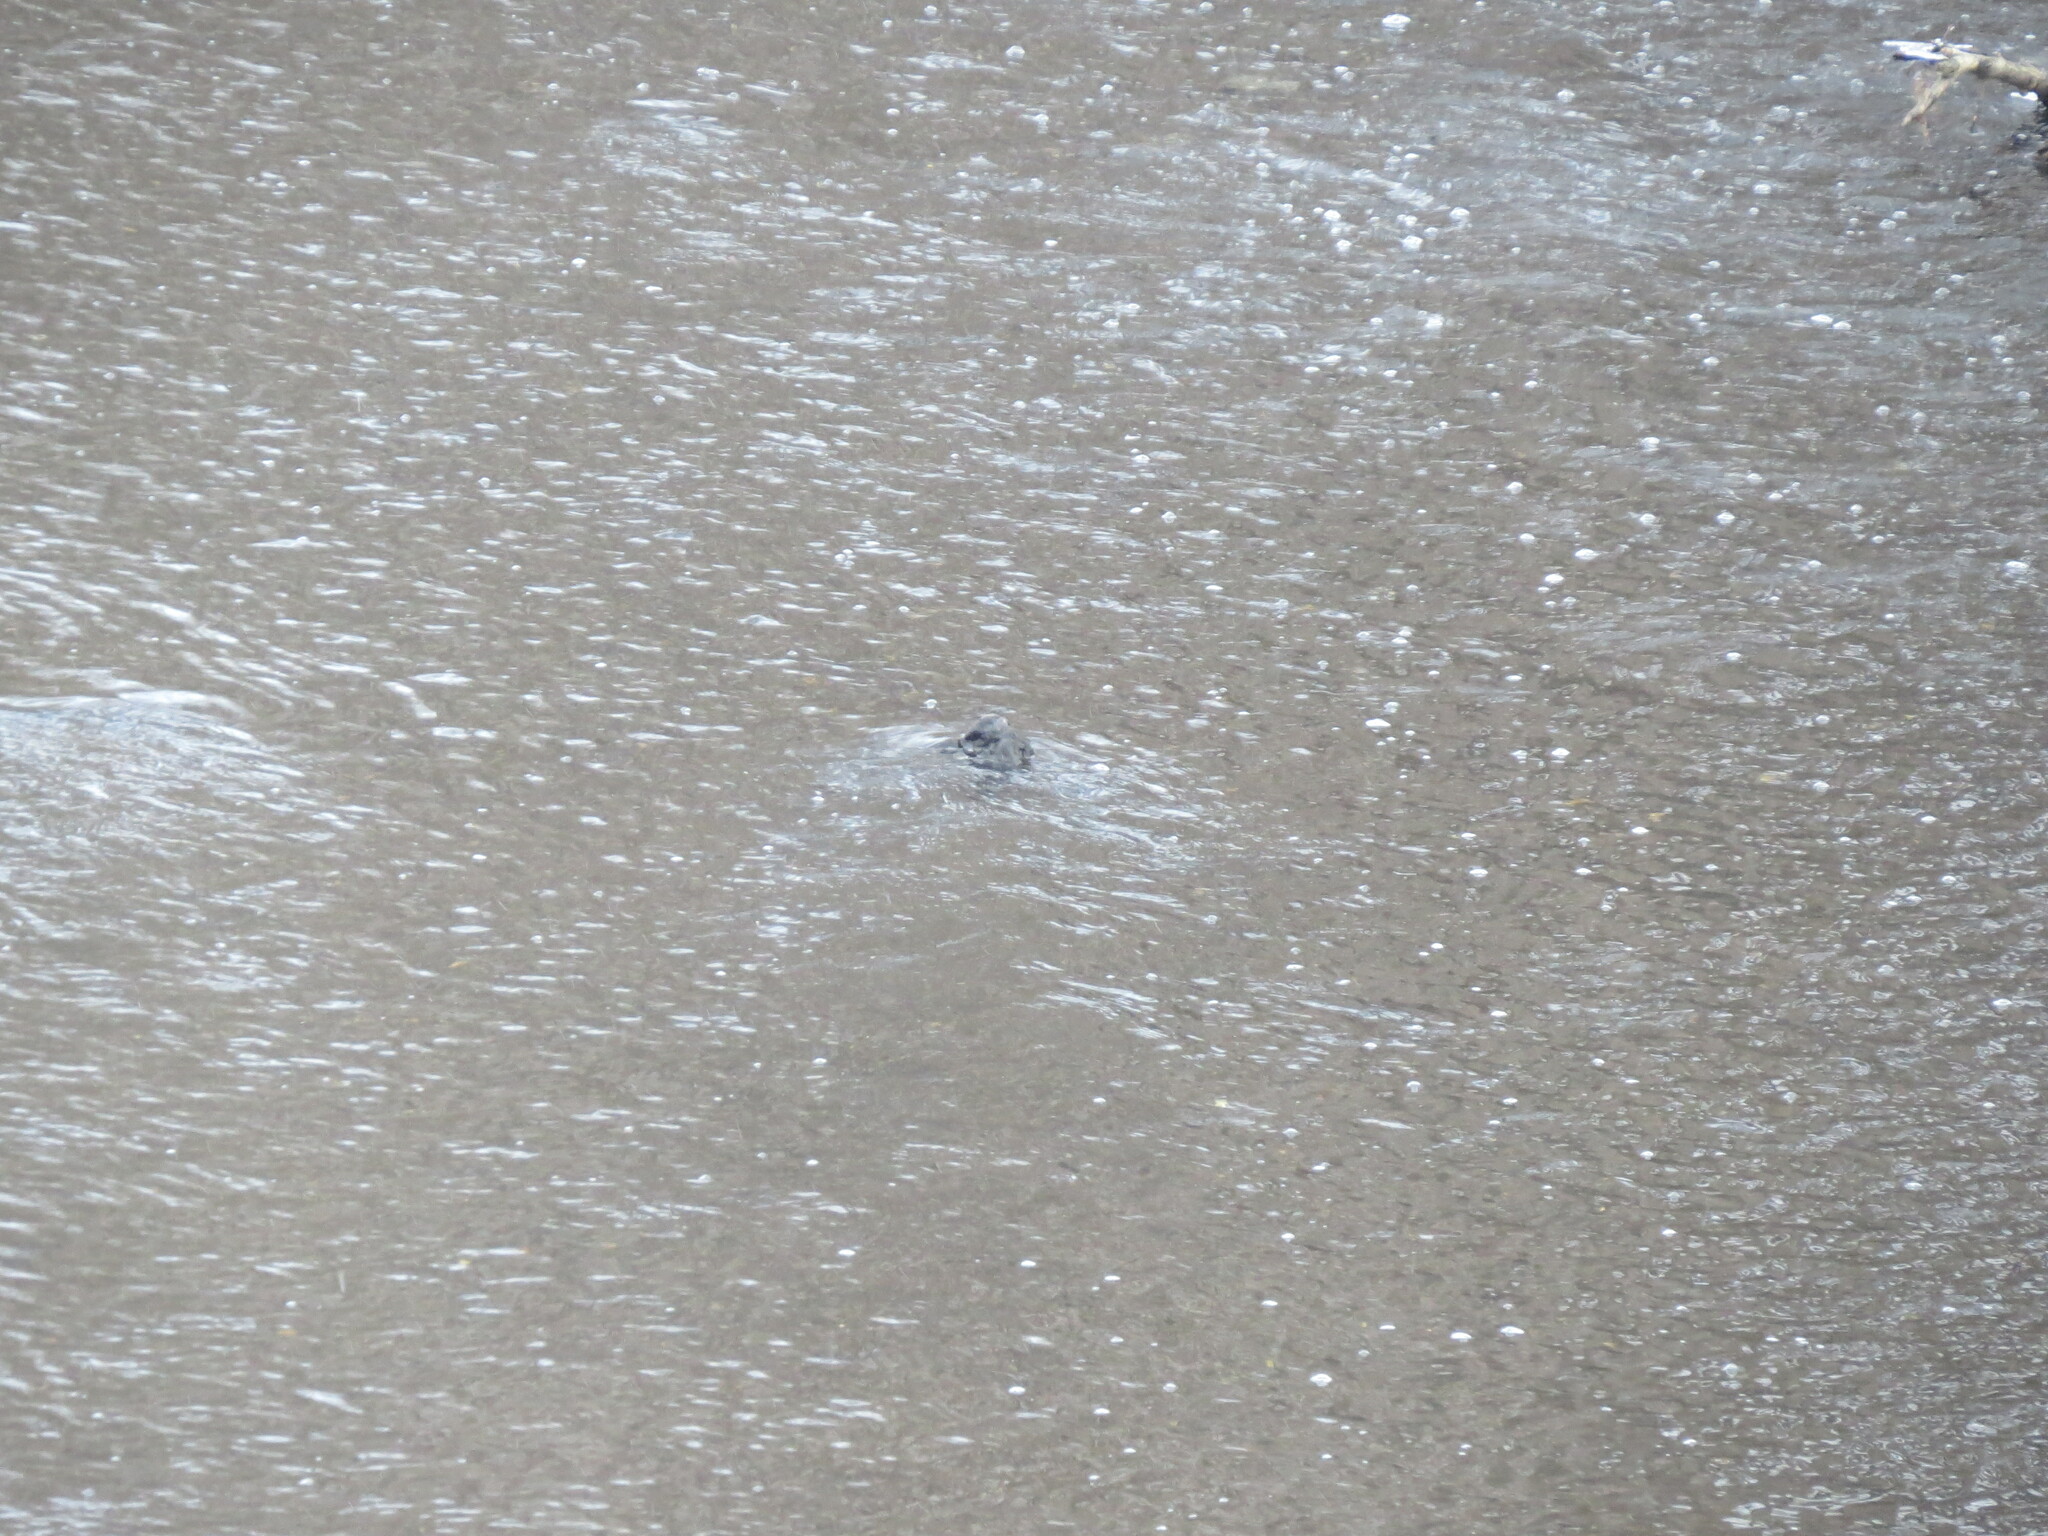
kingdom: Animalia
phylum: Chordata
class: Aves
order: Passeriformes
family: Cinclidae
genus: Cinclus
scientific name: Cinclus cinclus
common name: White-throated dipper
